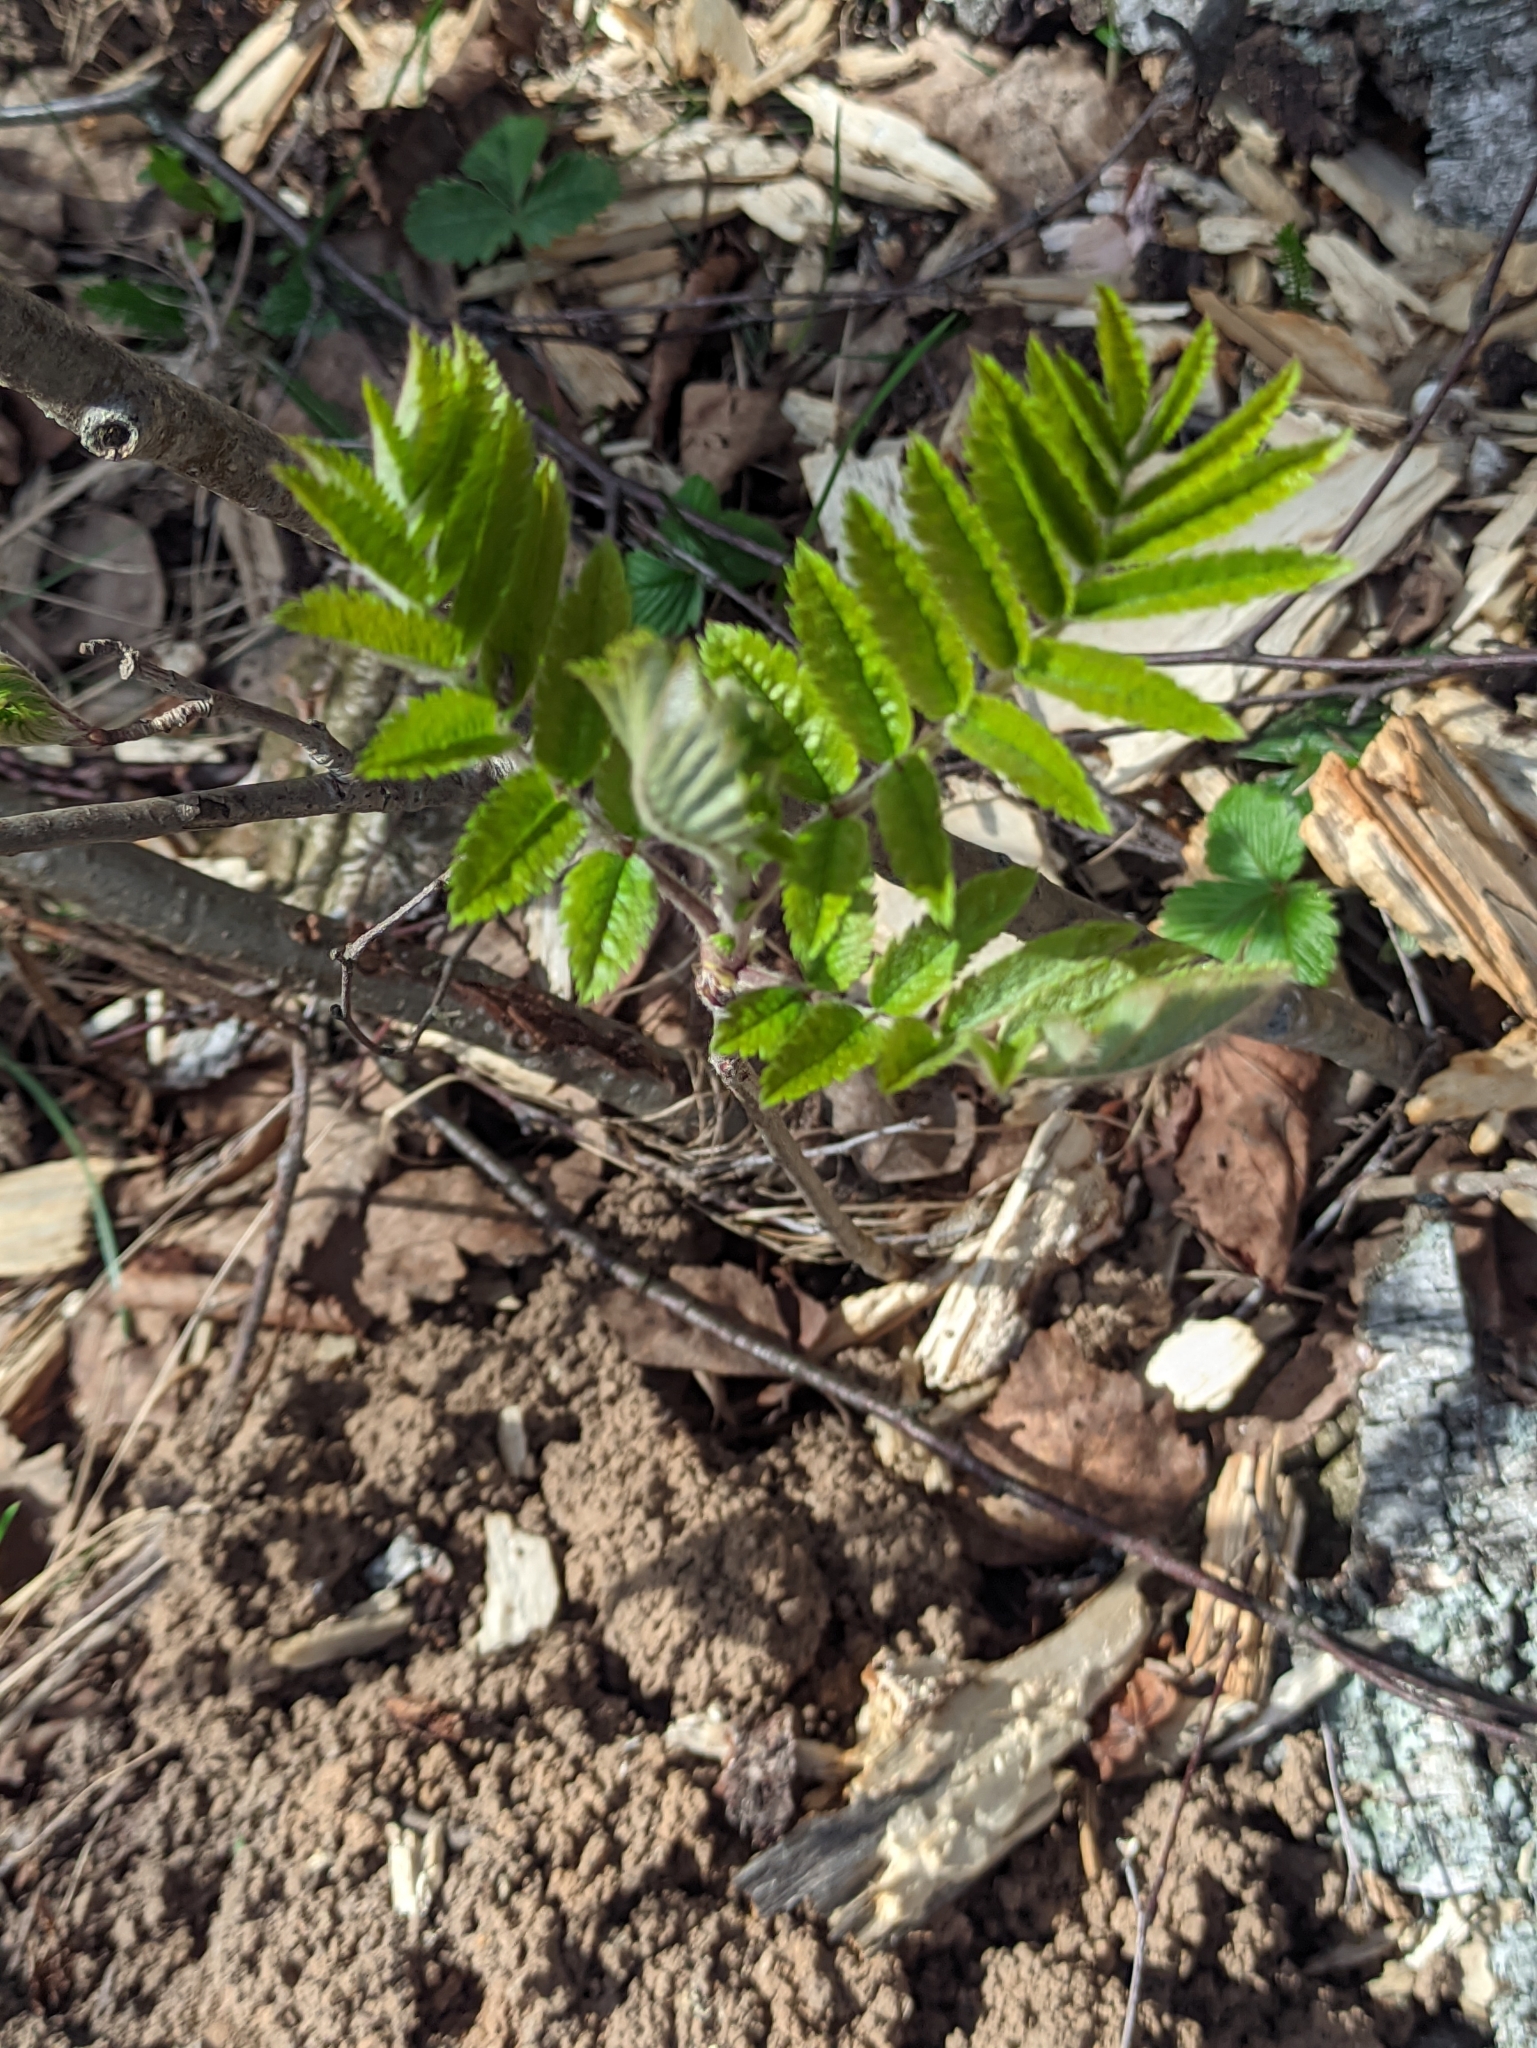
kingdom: Plantae
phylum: Tracheophyta
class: Magnoliopsida
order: Rosales
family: Rosaceae
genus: Sorbus
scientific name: Sorbus aucuparia
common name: Rowan
